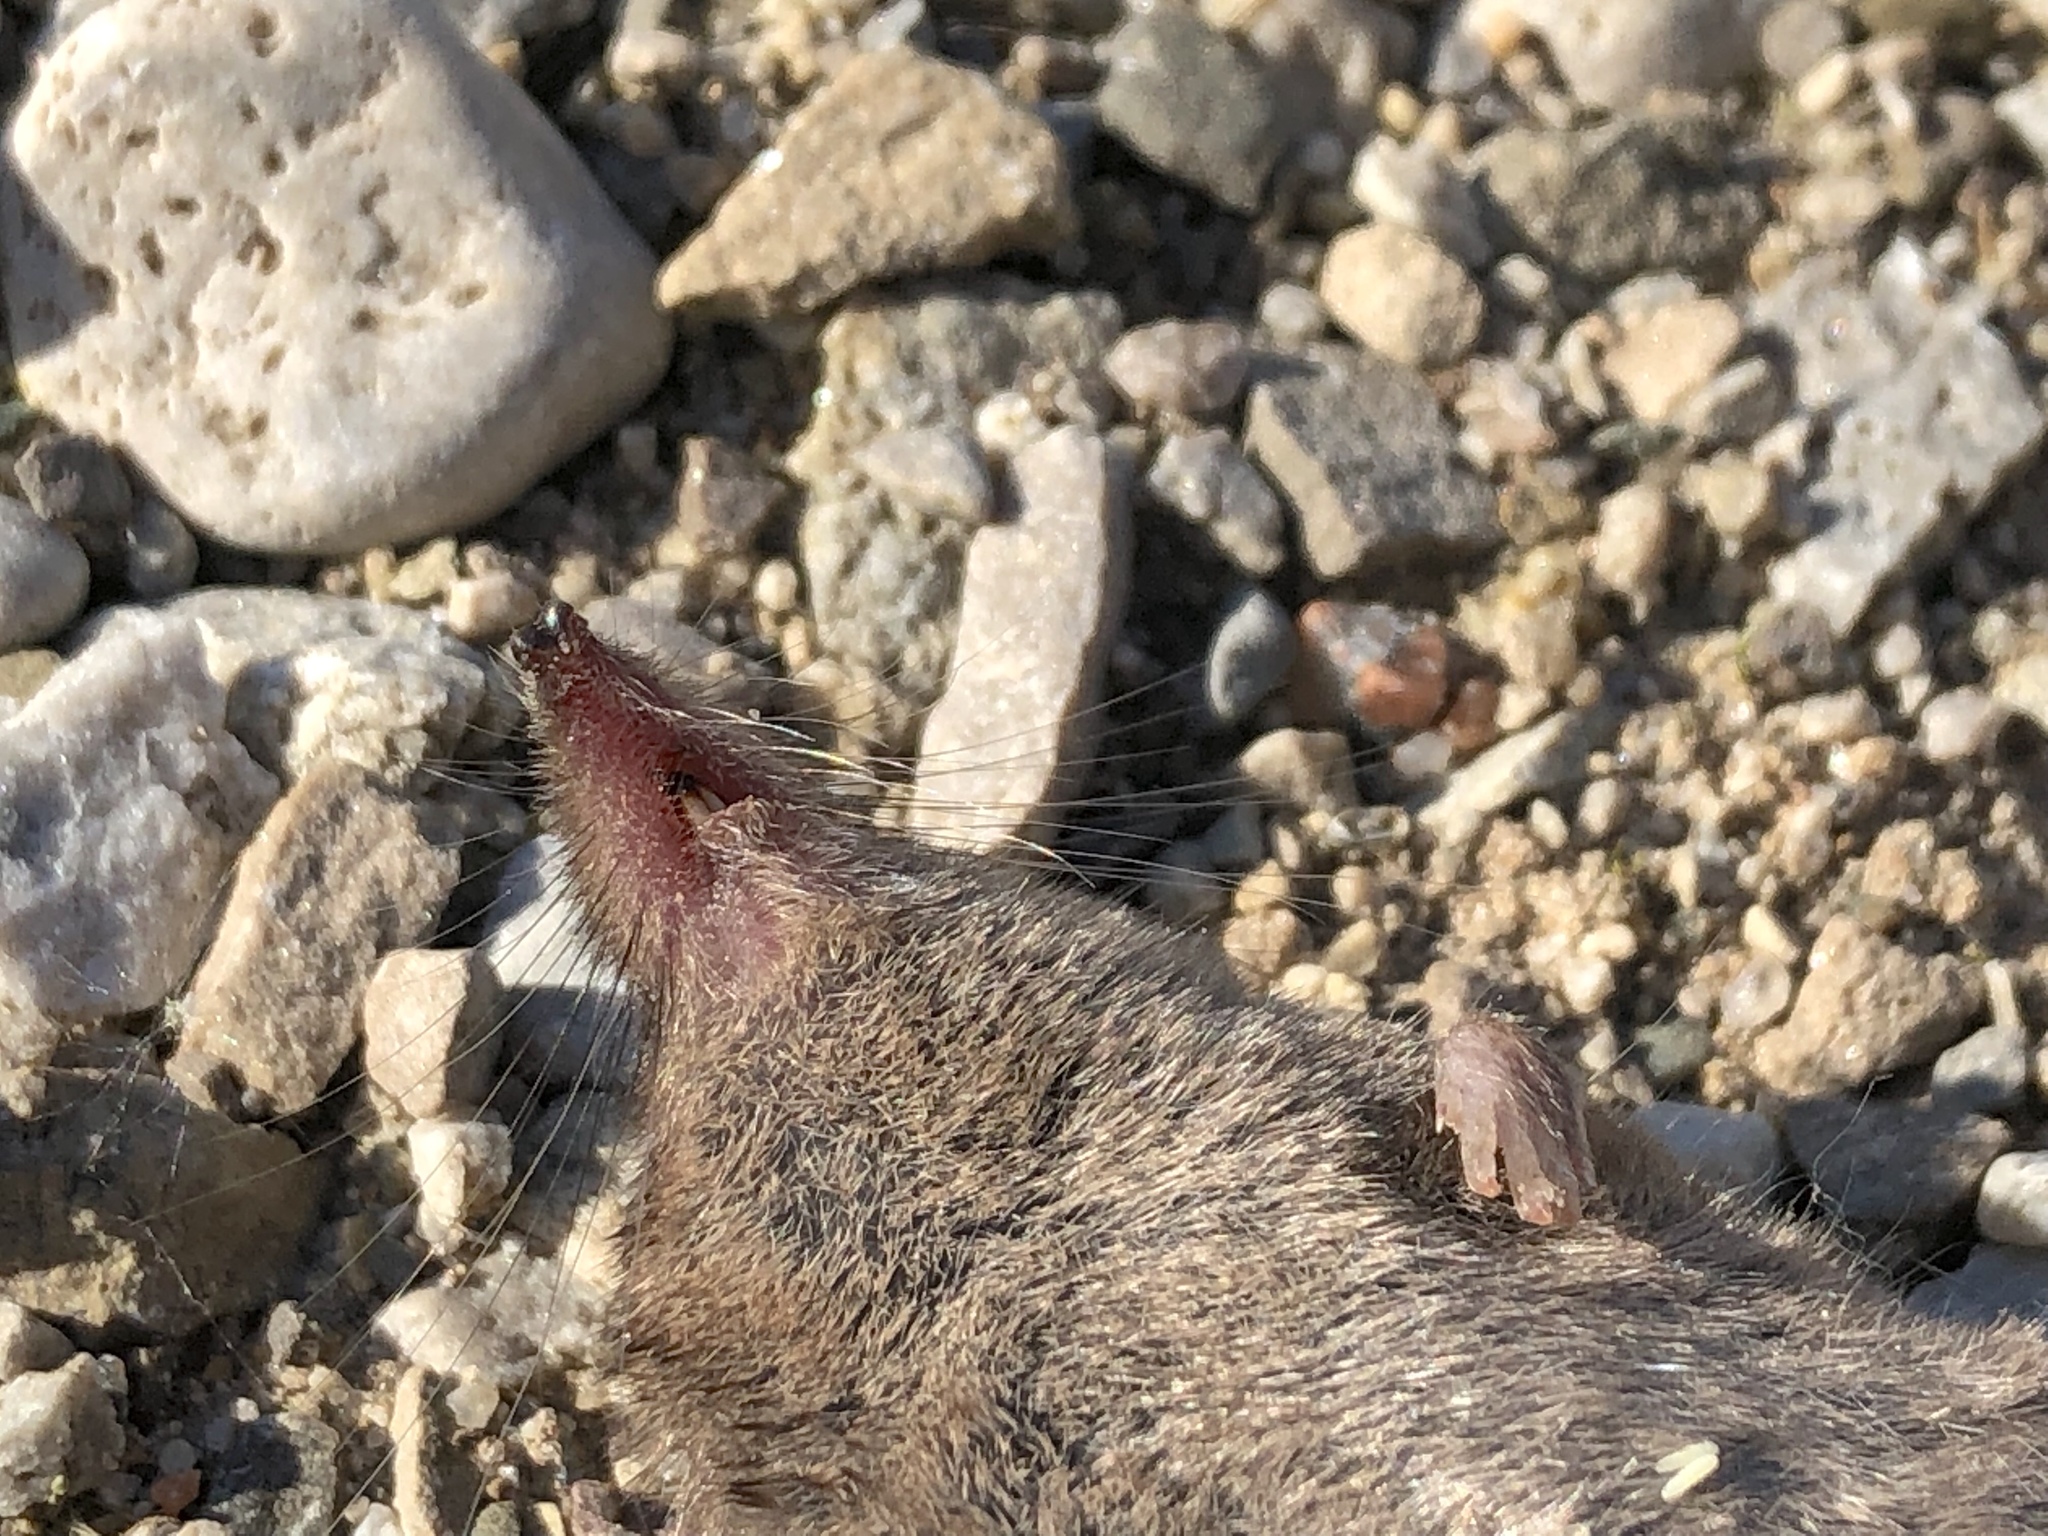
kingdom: Animalia
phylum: Chordata
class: Mammalia
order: Soricomorpha
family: Soricidae
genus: Sorex
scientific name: Sorex cinereus
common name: Cinereus shrew
